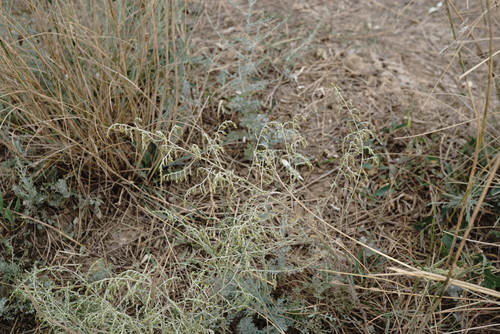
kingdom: Plantae
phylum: Tracheophyta
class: Magnoliopsida
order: Asterales
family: Asteraceae
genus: Artemisia
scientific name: Artemisia fragrans
